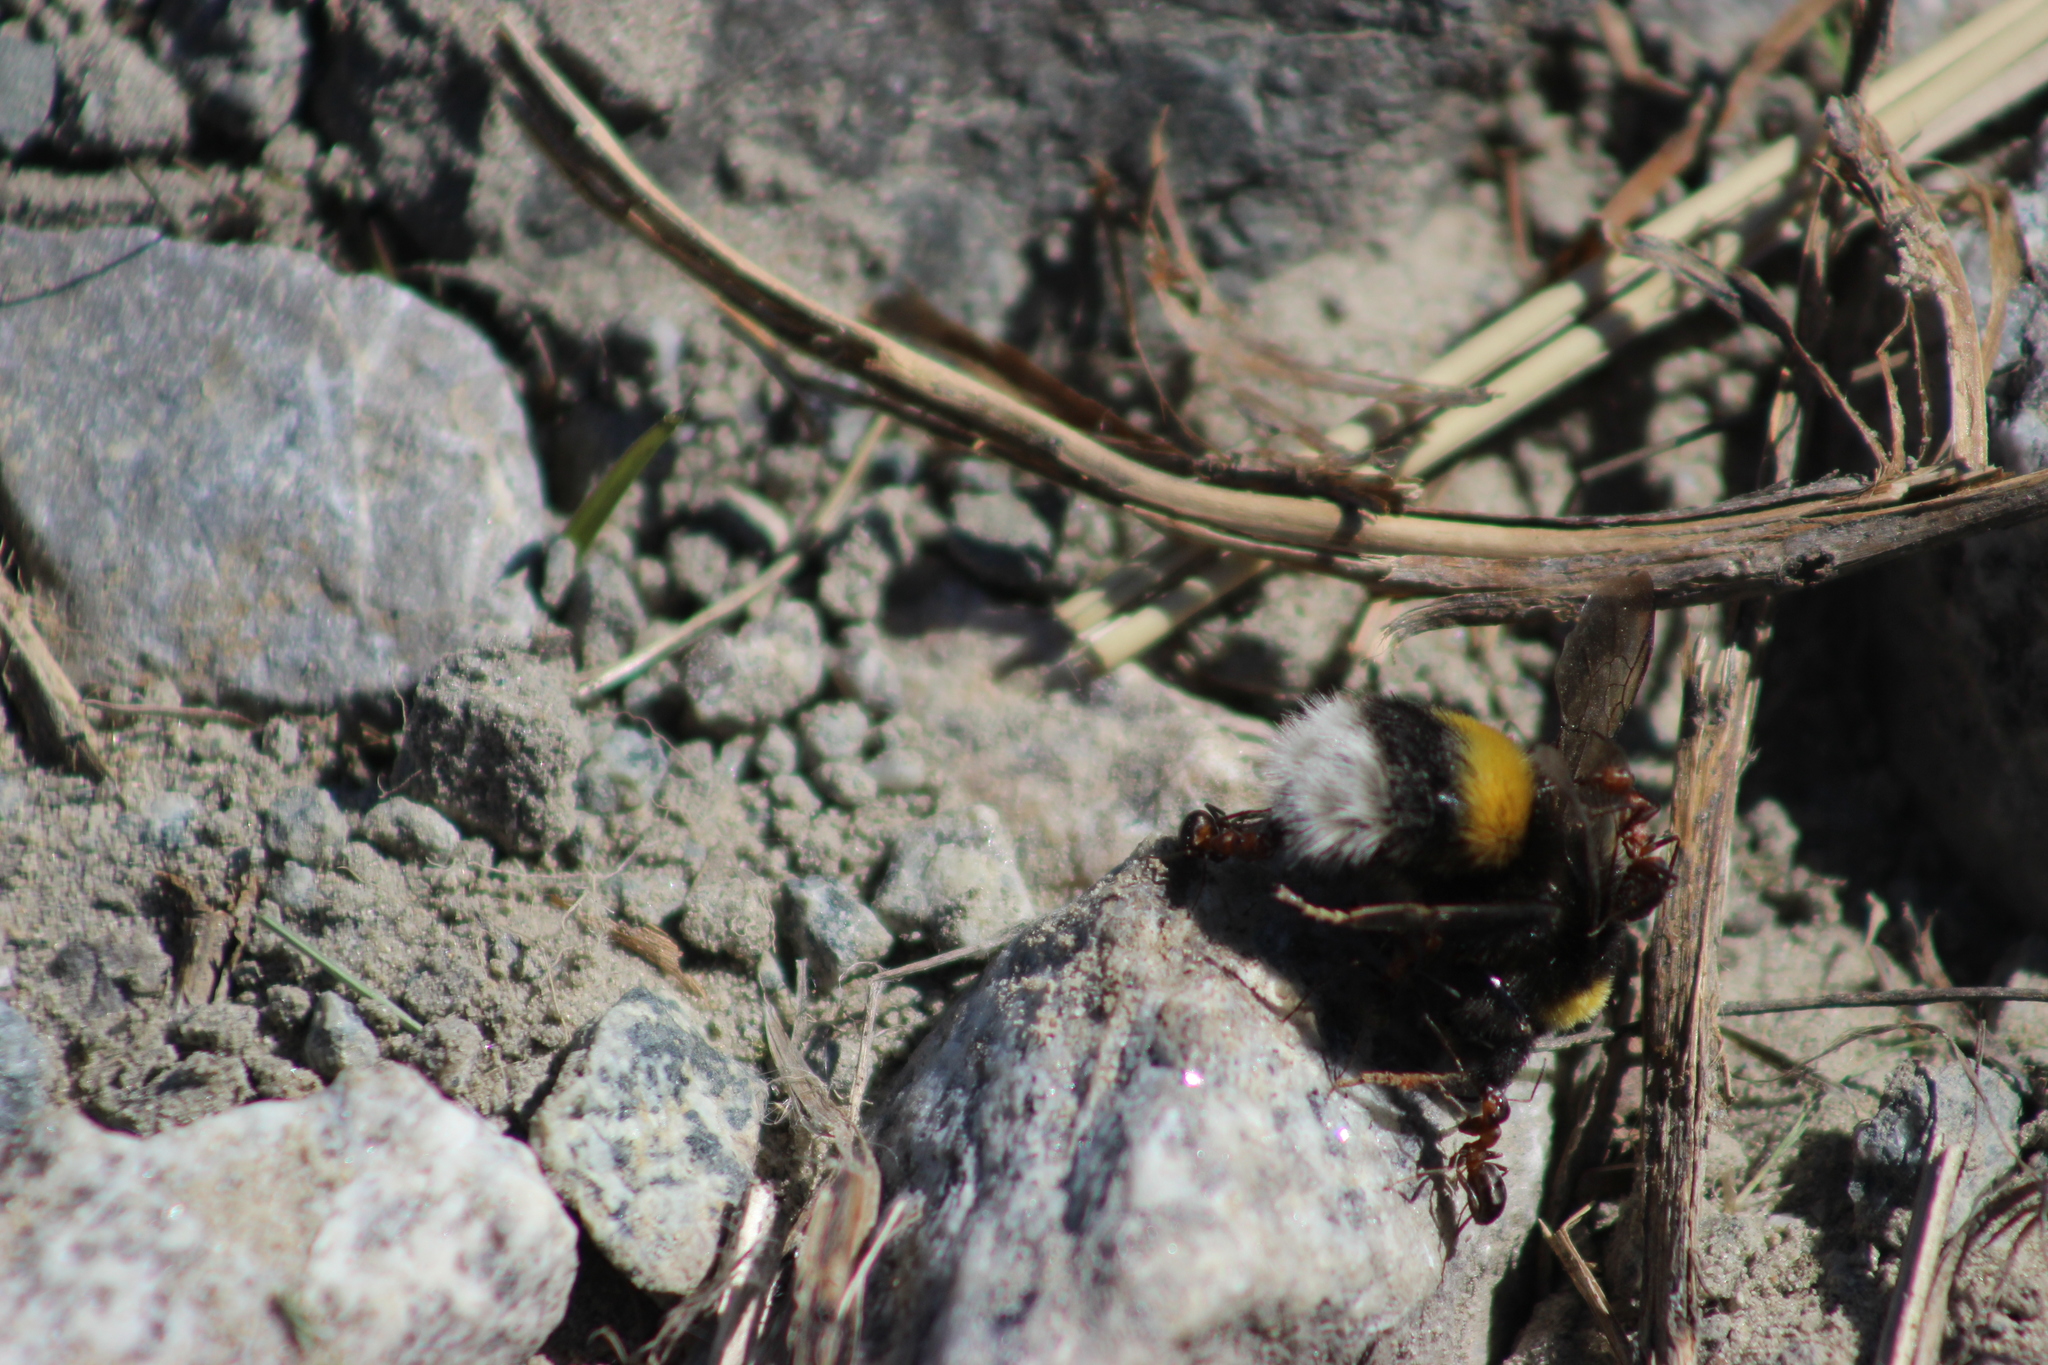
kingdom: Animalia
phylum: Arthropoda
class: Insecta
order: Hymenoptera
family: Apidae
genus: Bombus
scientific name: Bombus
